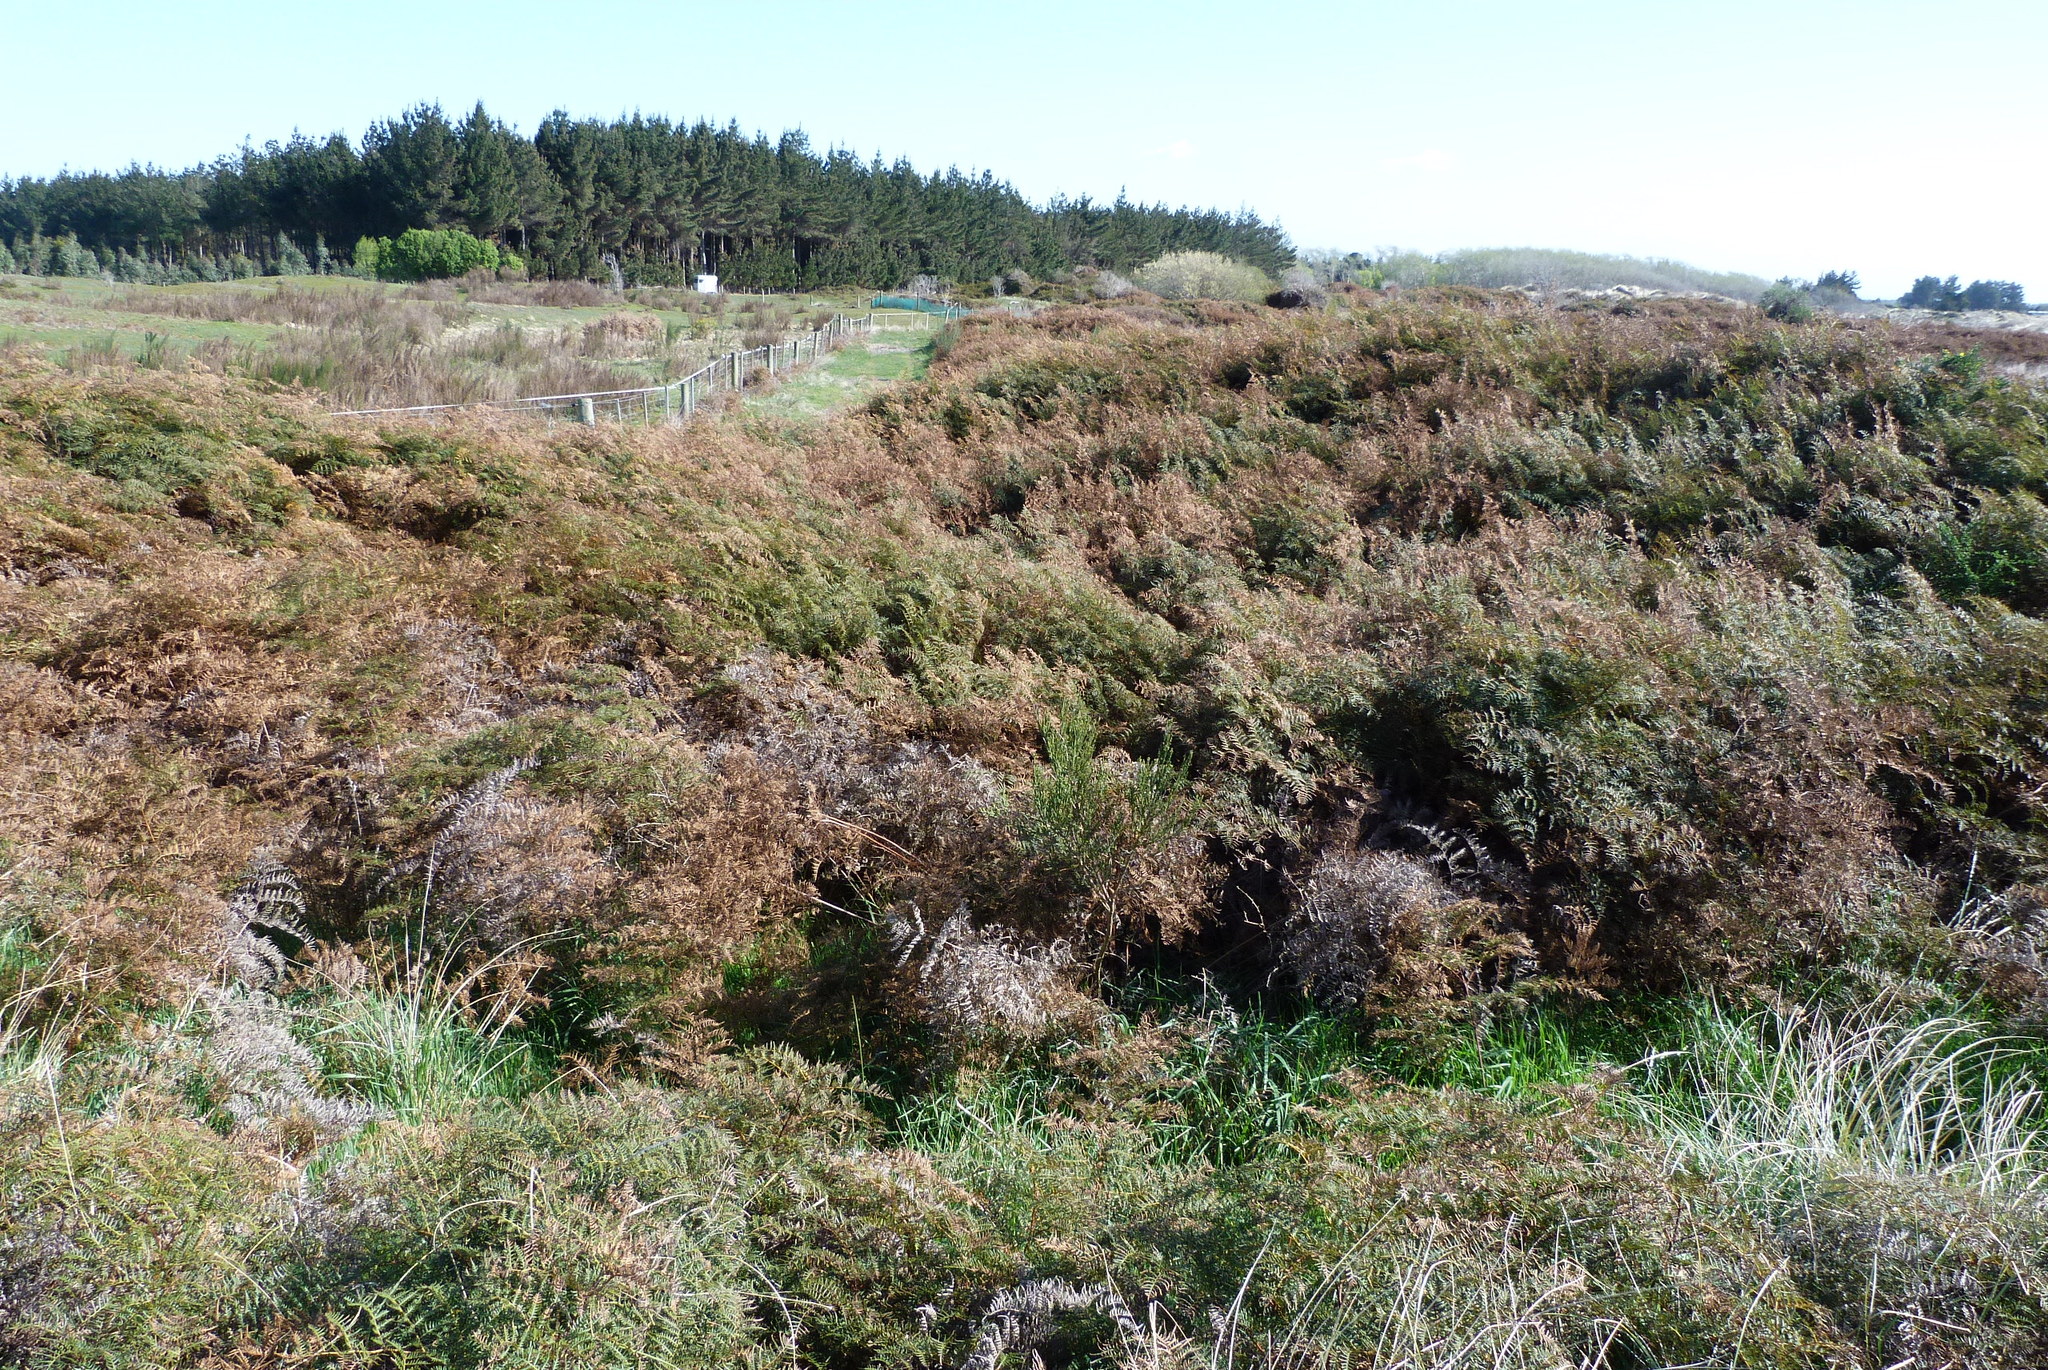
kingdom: Plantae
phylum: Tracheophyta
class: Polypodiopsida
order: Polypodiales
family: Dennstaedtiaceae
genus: Pteridium
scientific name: Pteridium esculentum
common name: Bracken fern
